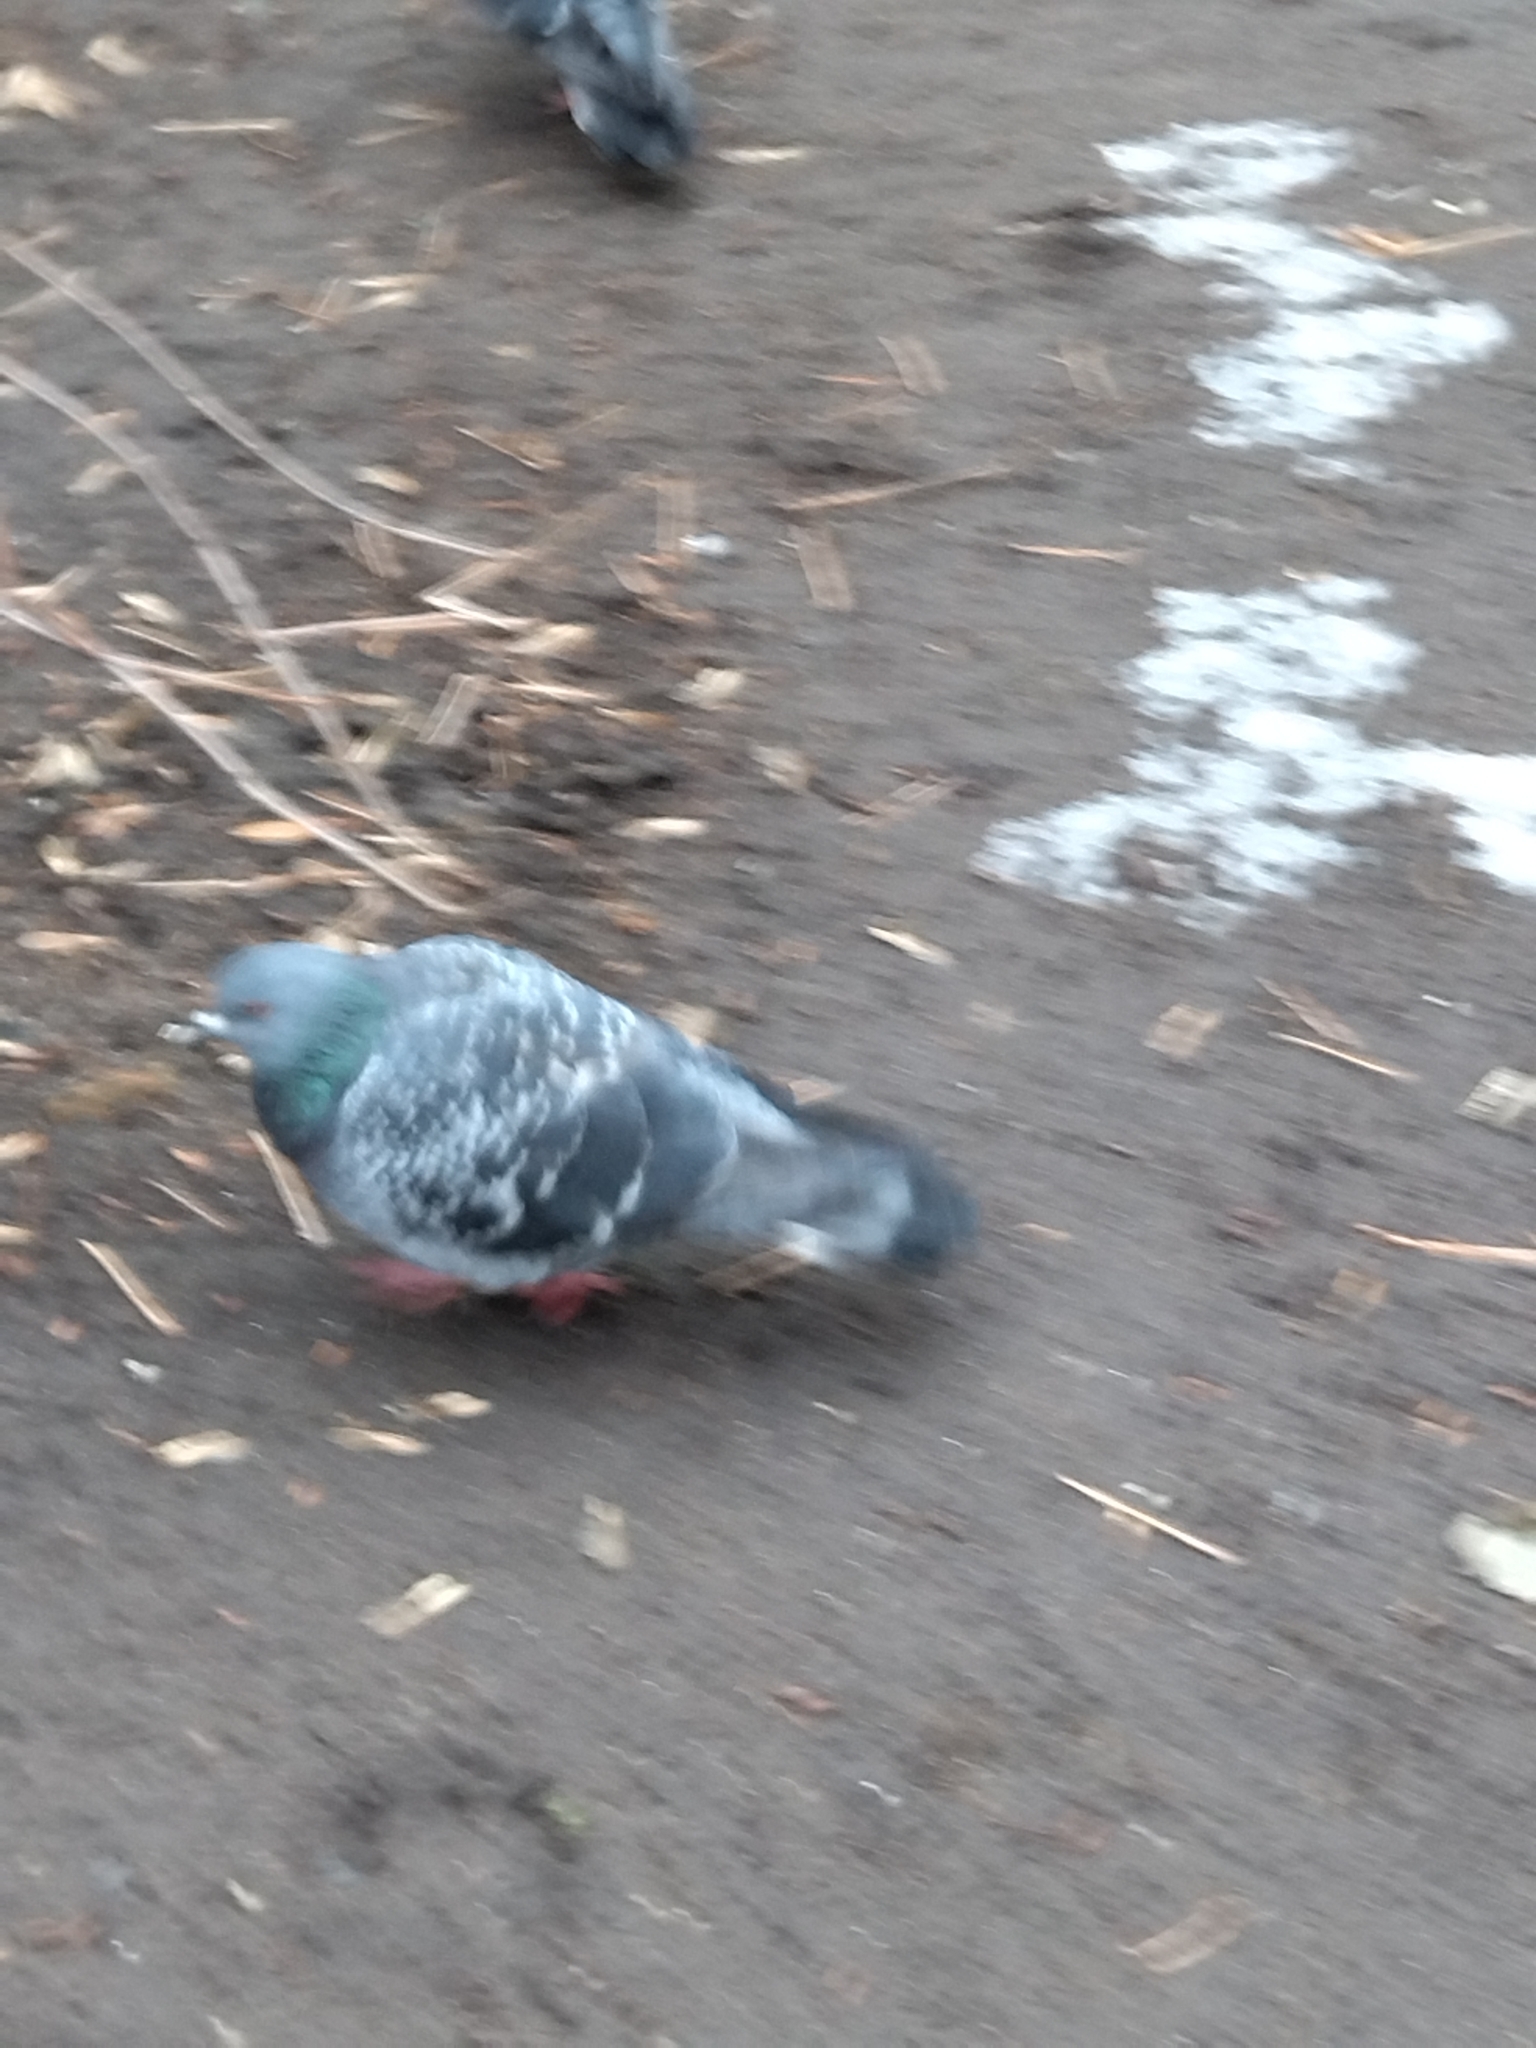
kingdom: Animalia
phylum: Chordata
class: Aves
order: Columbiformes
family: Columbidae
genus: Columba
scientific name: Columba livia
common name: Rock pigeon
